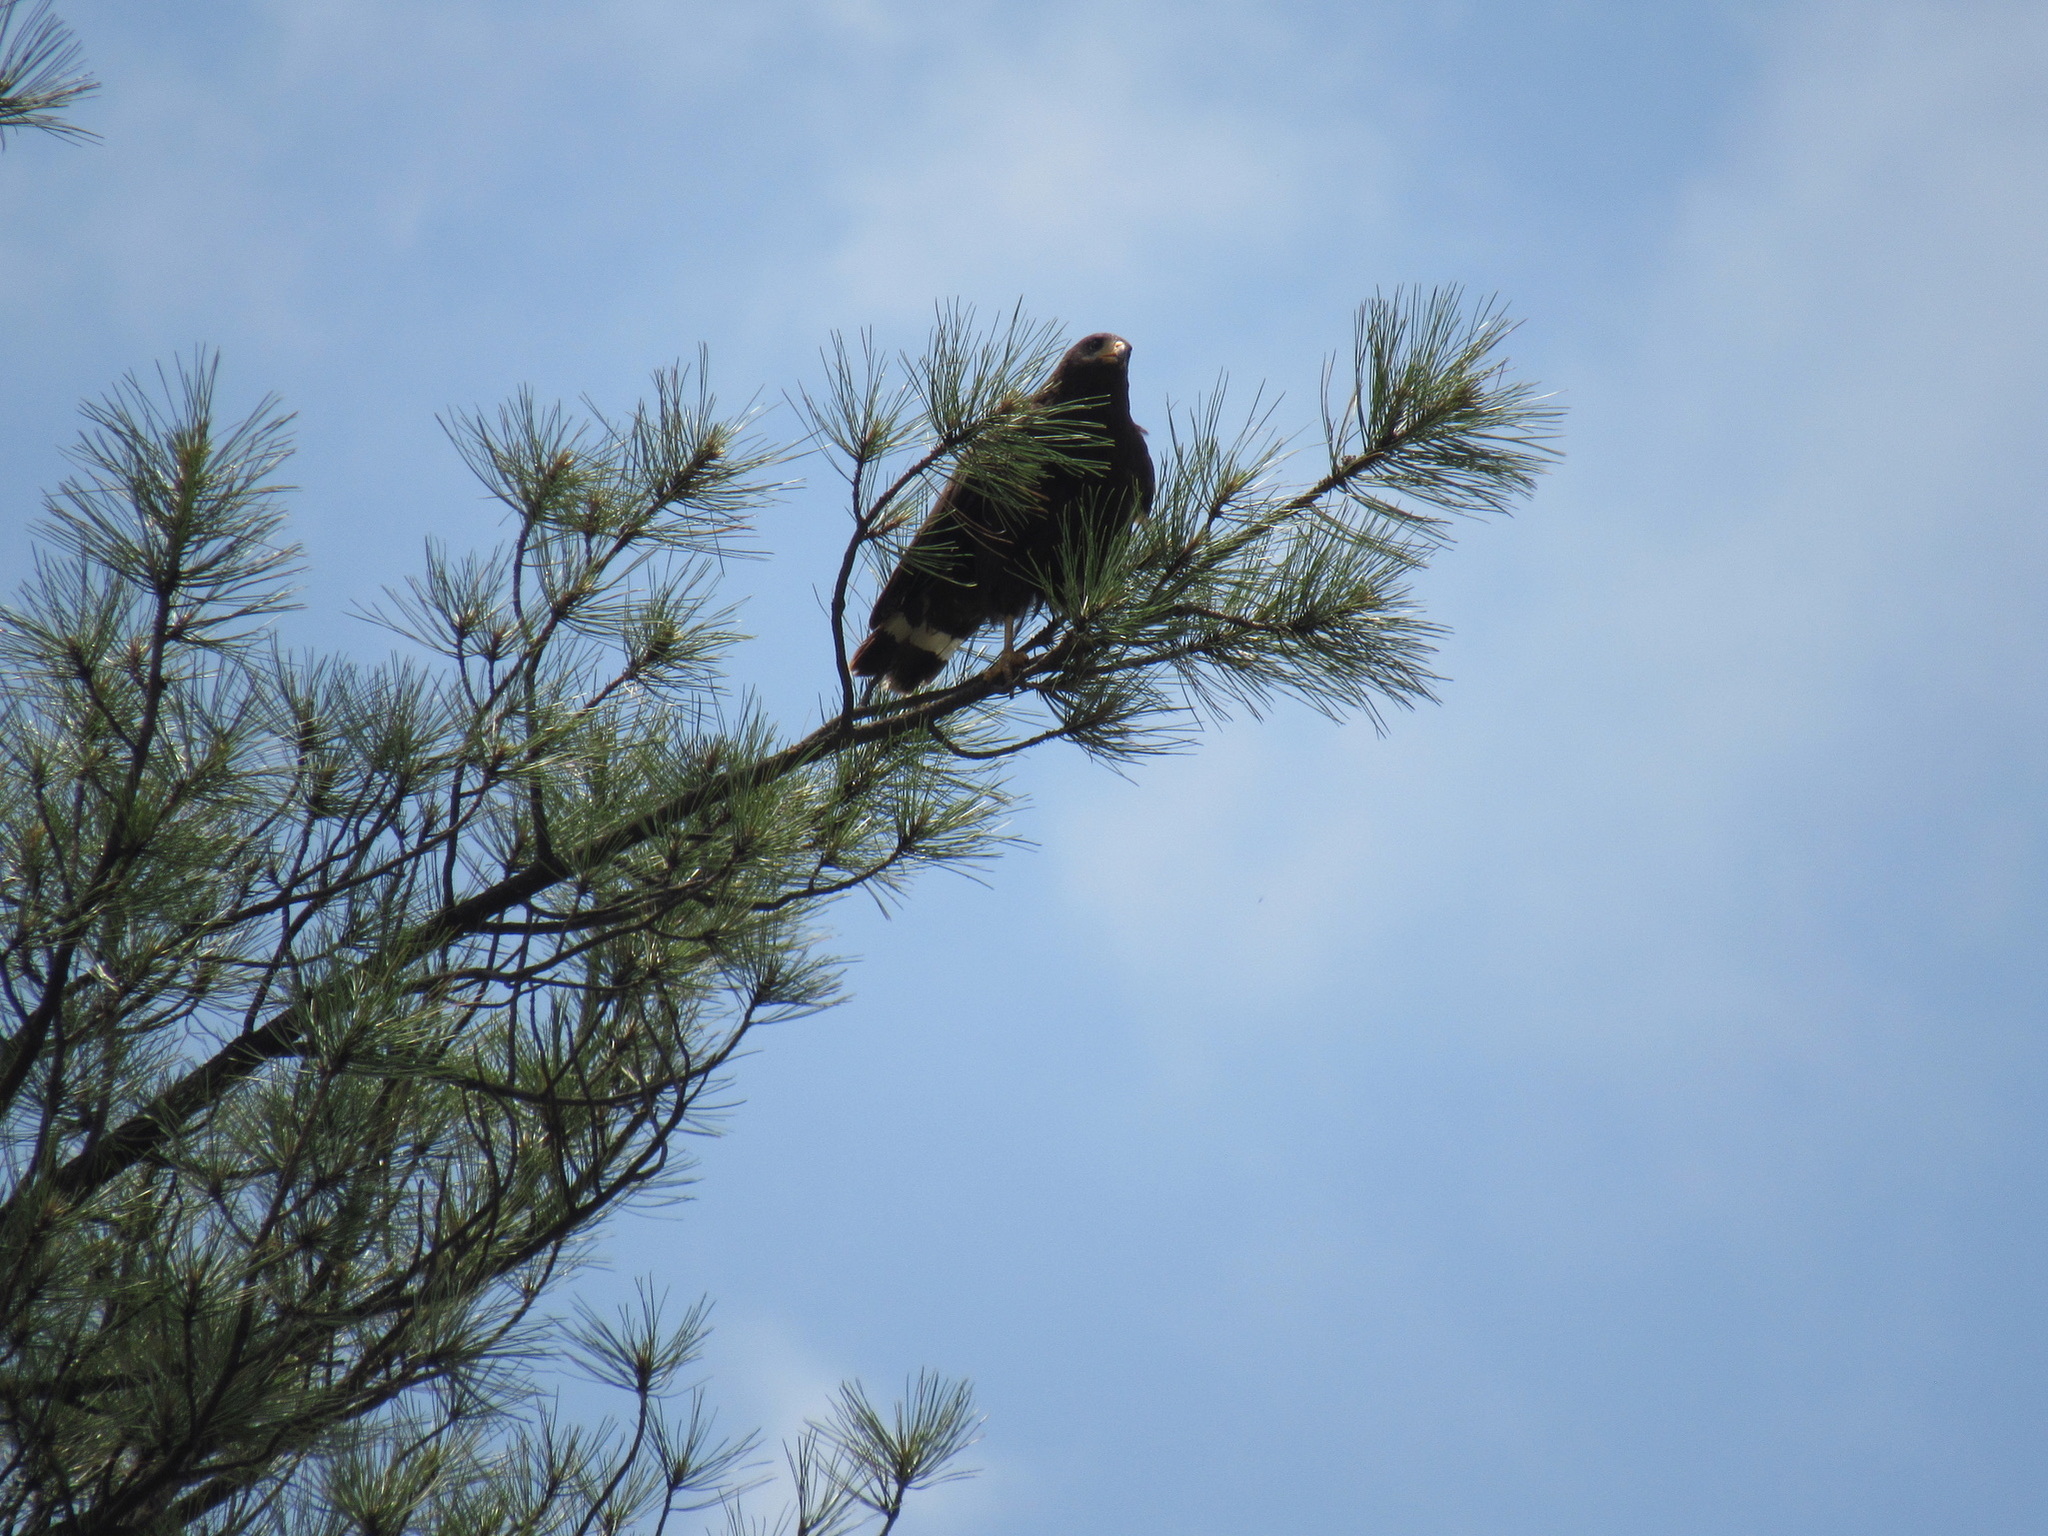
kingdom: Animalia
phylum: Chordata
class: Aves
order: Accipitriformes
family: Accipitridae
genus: Buteo
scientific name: Buteo albonotatus
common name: Zone-tailed hawk
